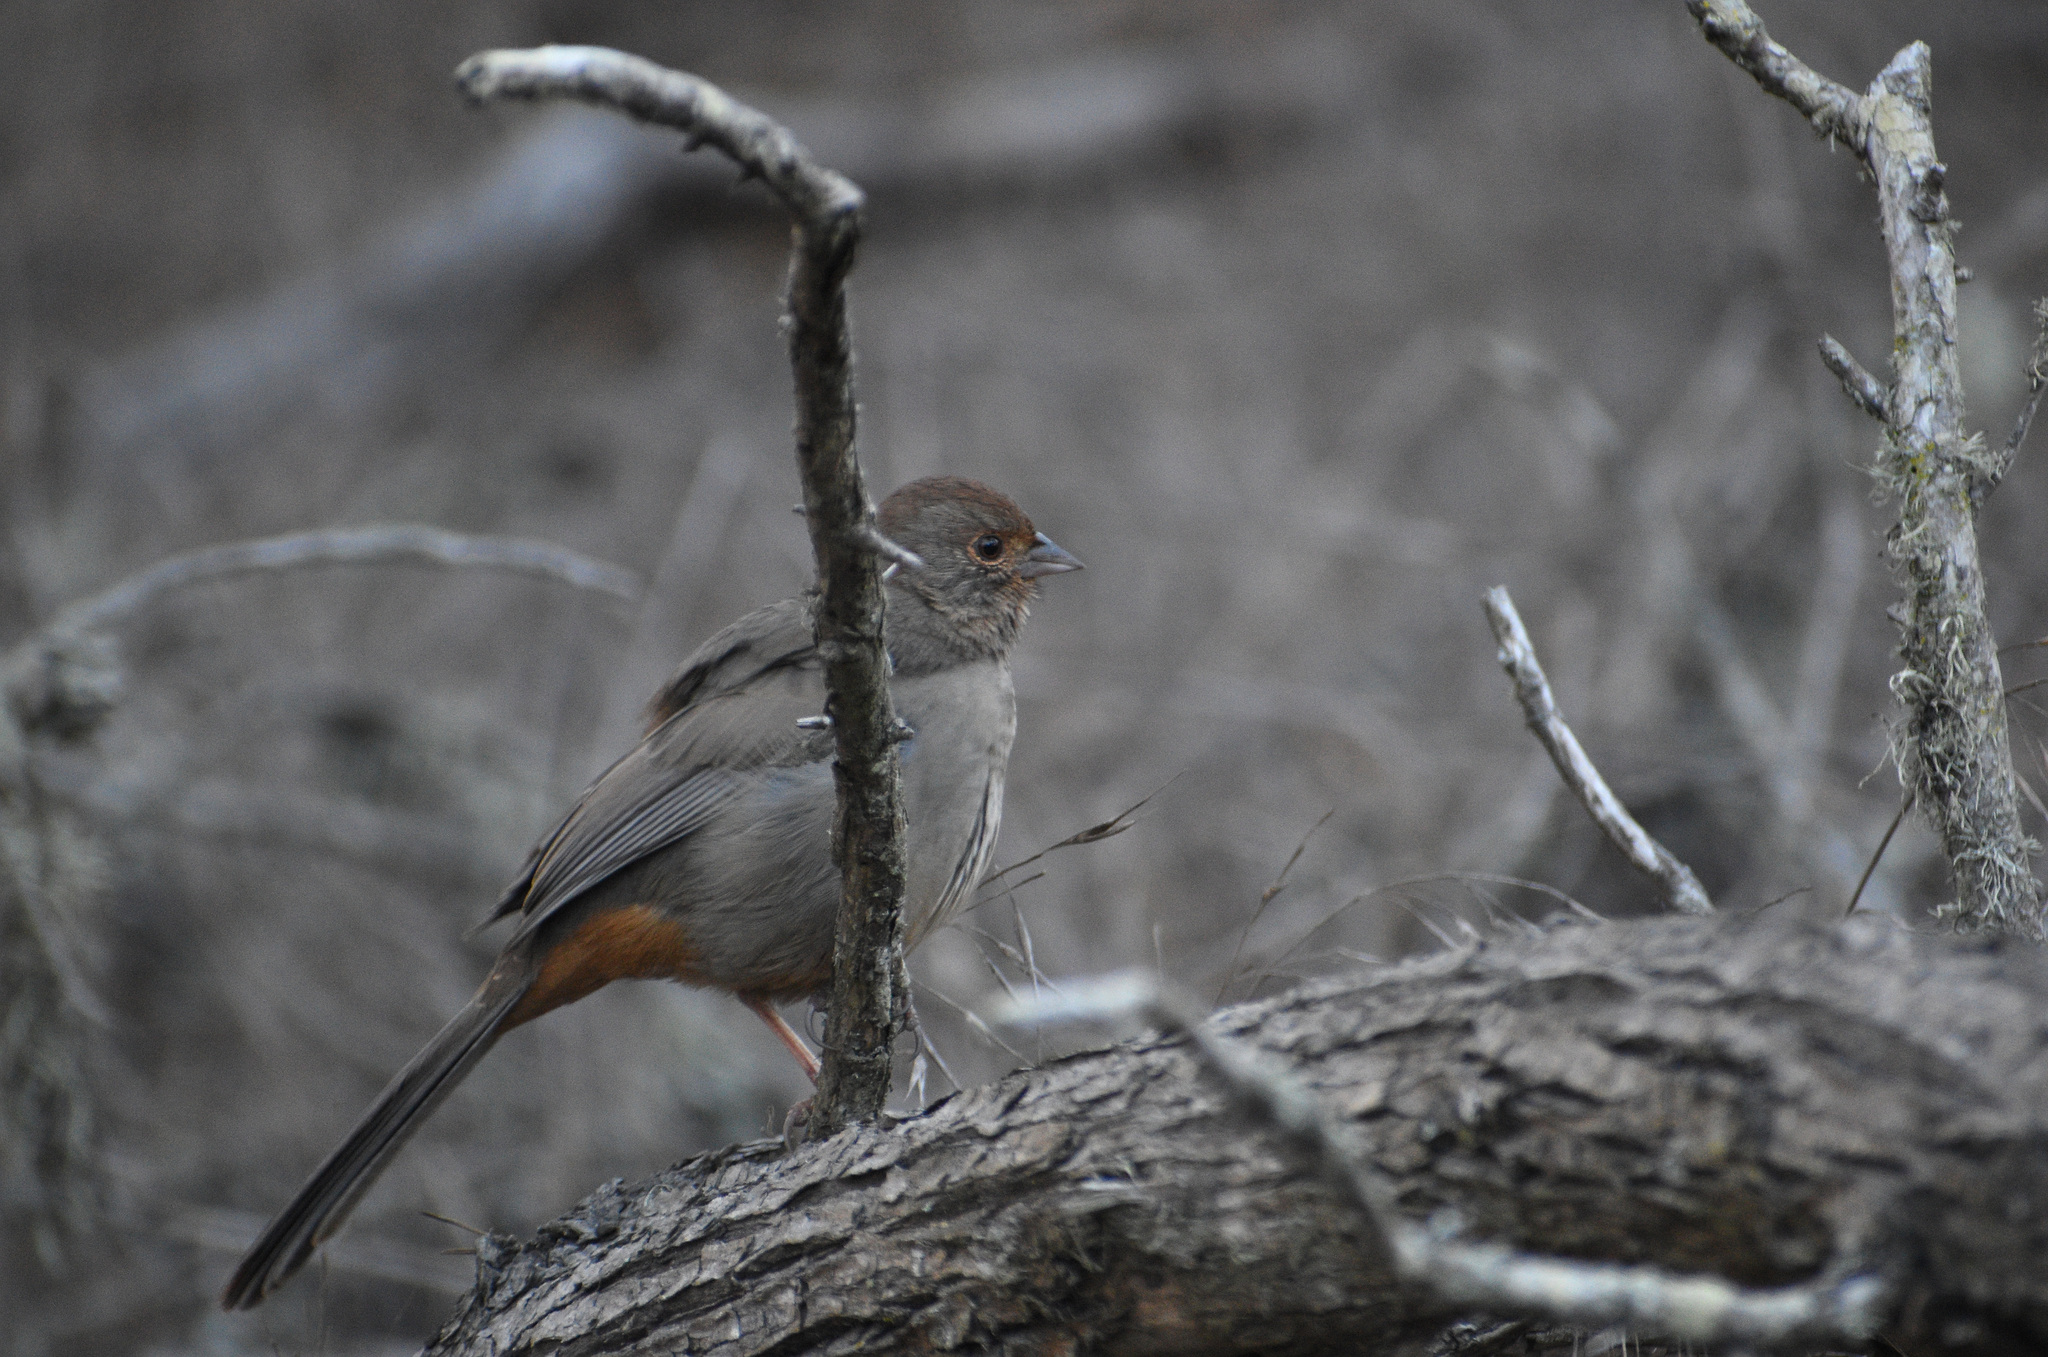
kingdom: Animalia
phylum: Chordata
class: Aves
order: Passeriformes
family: Passerellidae
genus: Melozone
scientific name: Melozone crissalis
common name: California towhee
